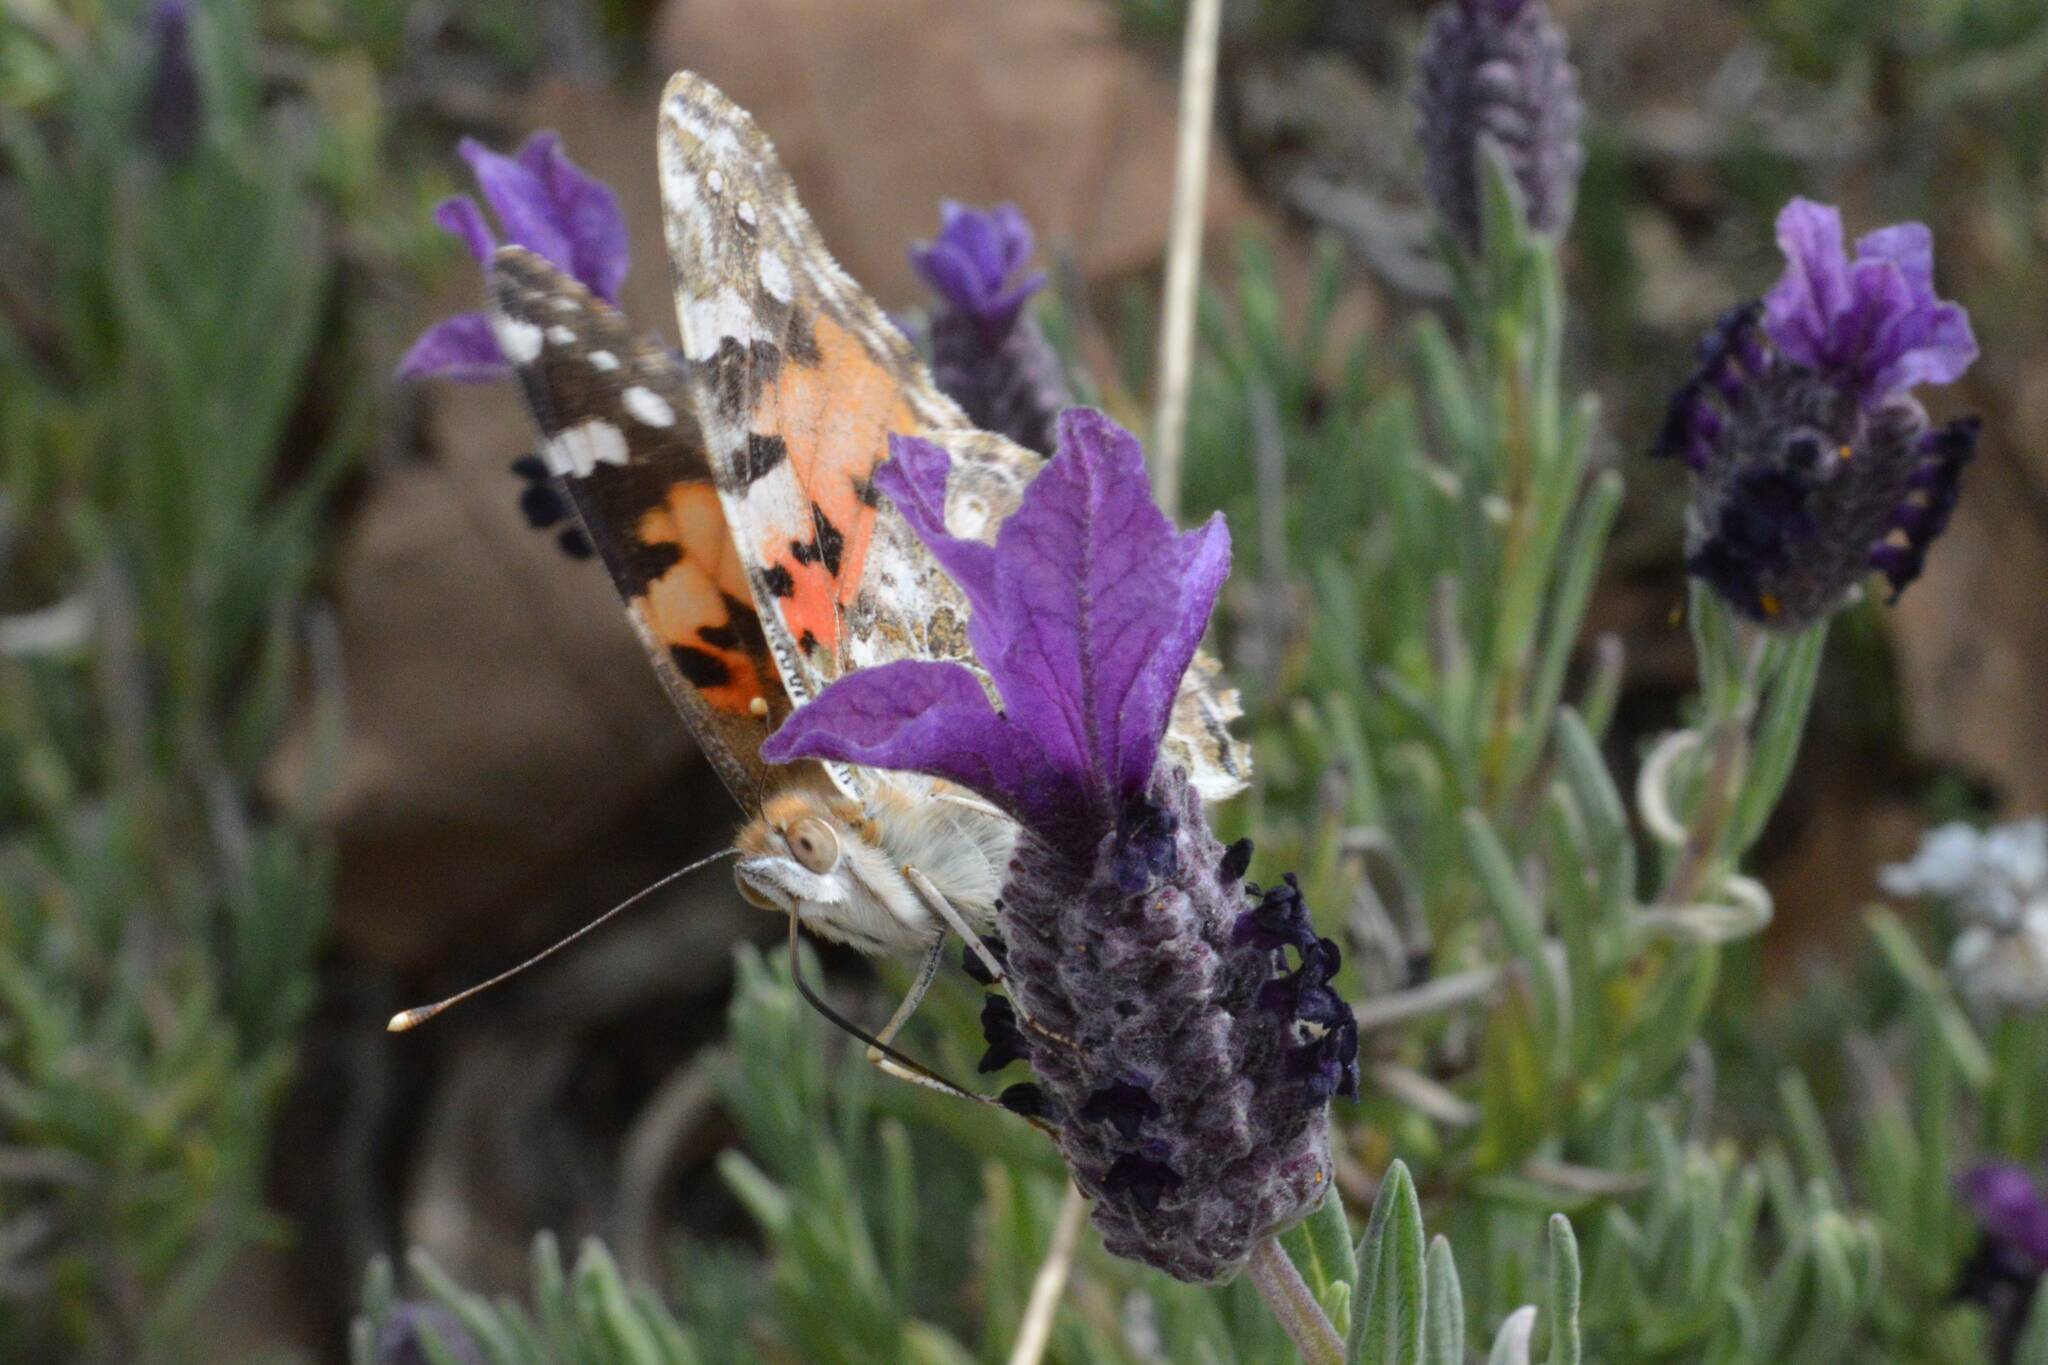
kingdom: Animalia
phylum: Arthropoda
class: Insecta
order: Lepidoptera
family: Nymphalidae
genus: Vanessa
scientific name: Vanessa cardui
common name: Painted lady
